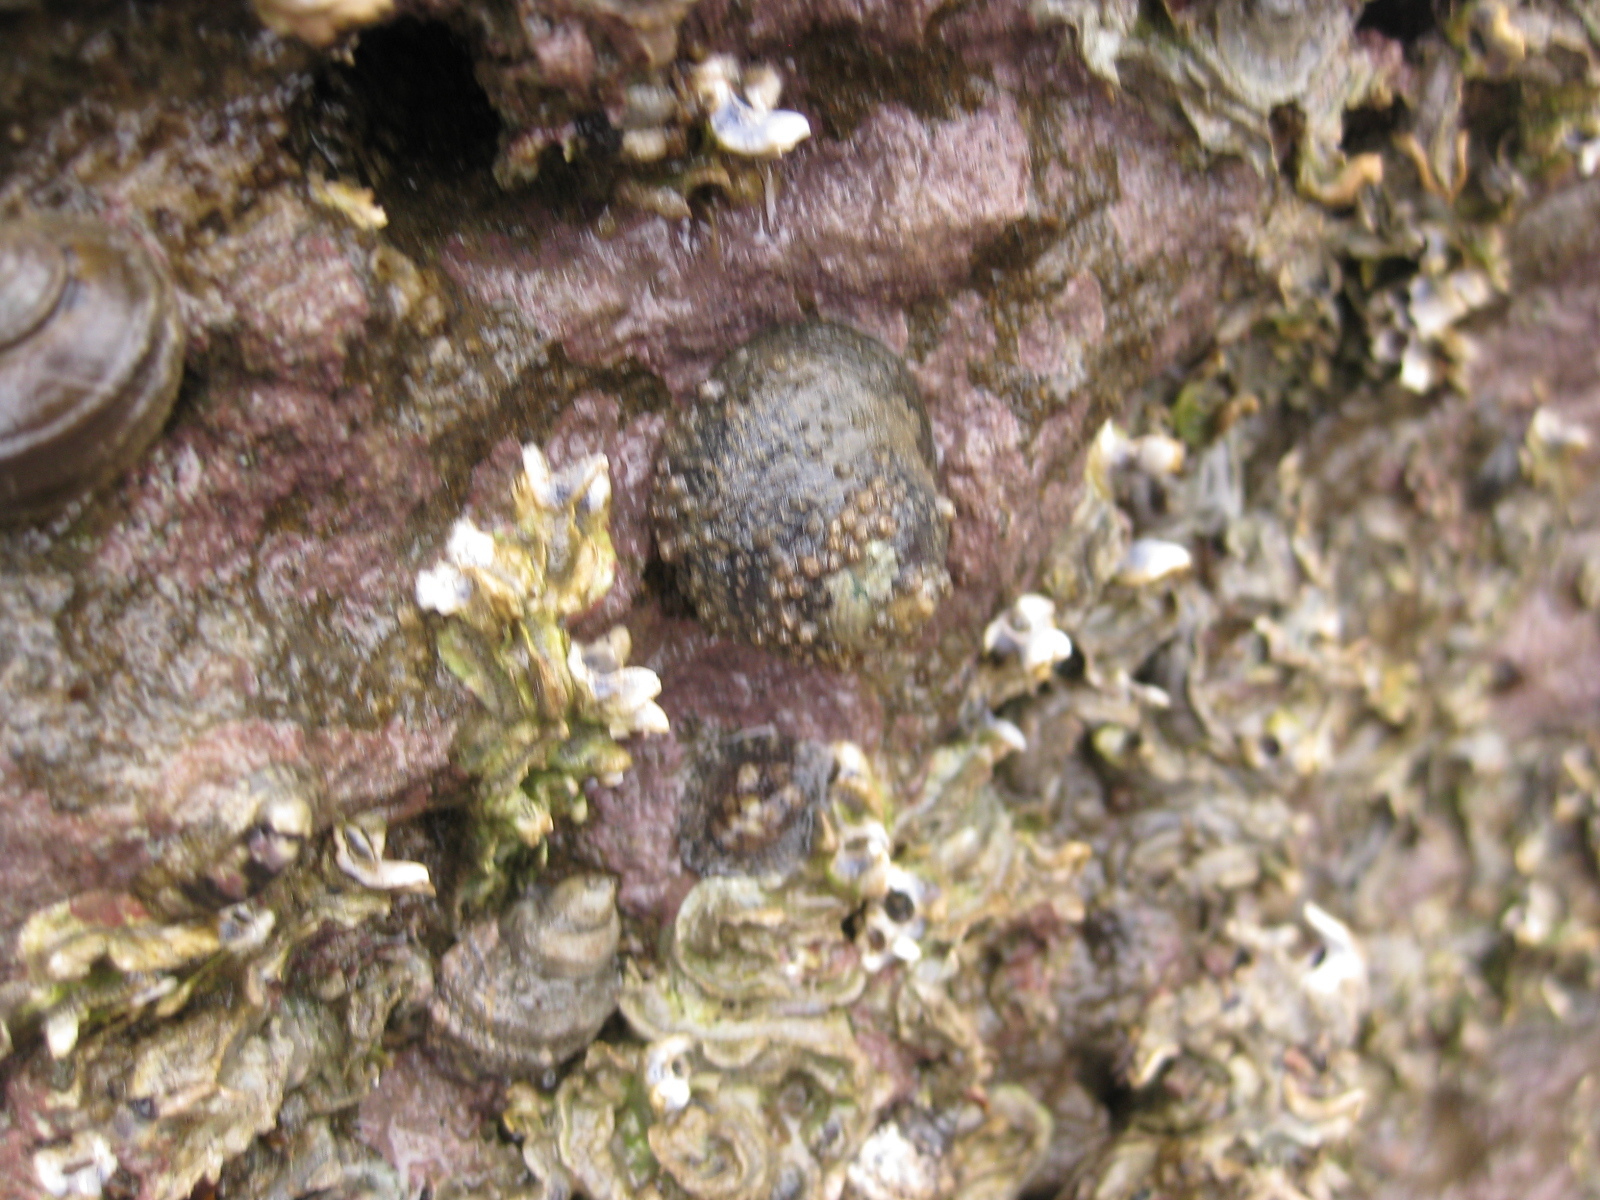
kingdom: Animalia
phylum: Mollusca
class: Gastropoda
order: Trochida
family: Trochidae
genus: Diloma
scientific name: Diloma aethiops
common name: Scorched monodont
